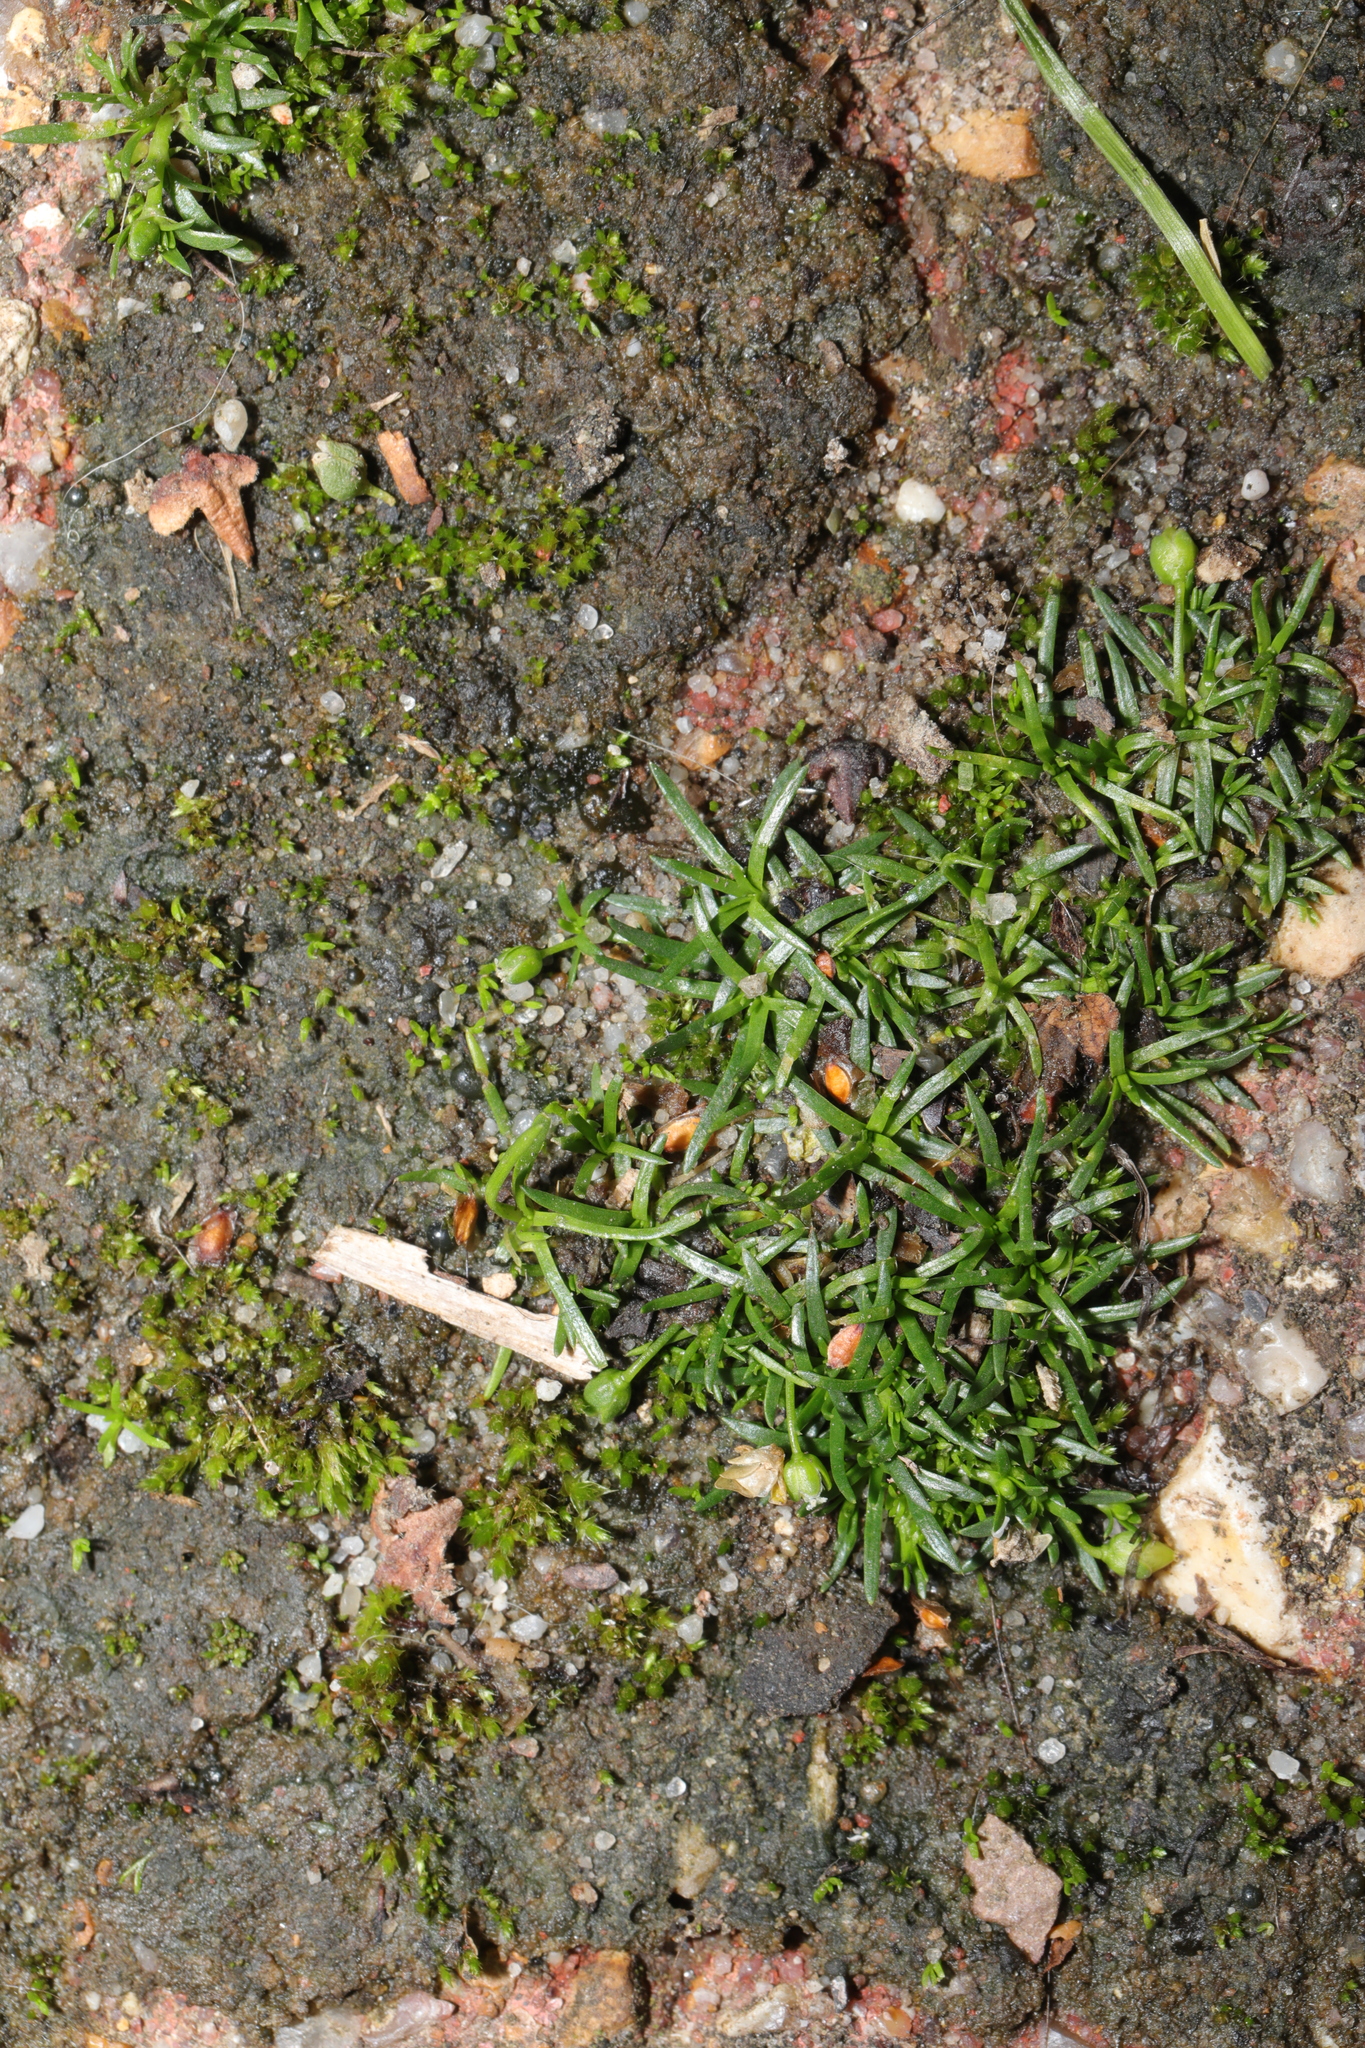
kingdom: Plantae
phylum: Tracheophyta
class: Magnoliopsida
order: Caryophyllales
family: Caryophyllaceae
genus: Sagina
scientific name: Sagina procumbens
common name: Procumbent pearlwort
